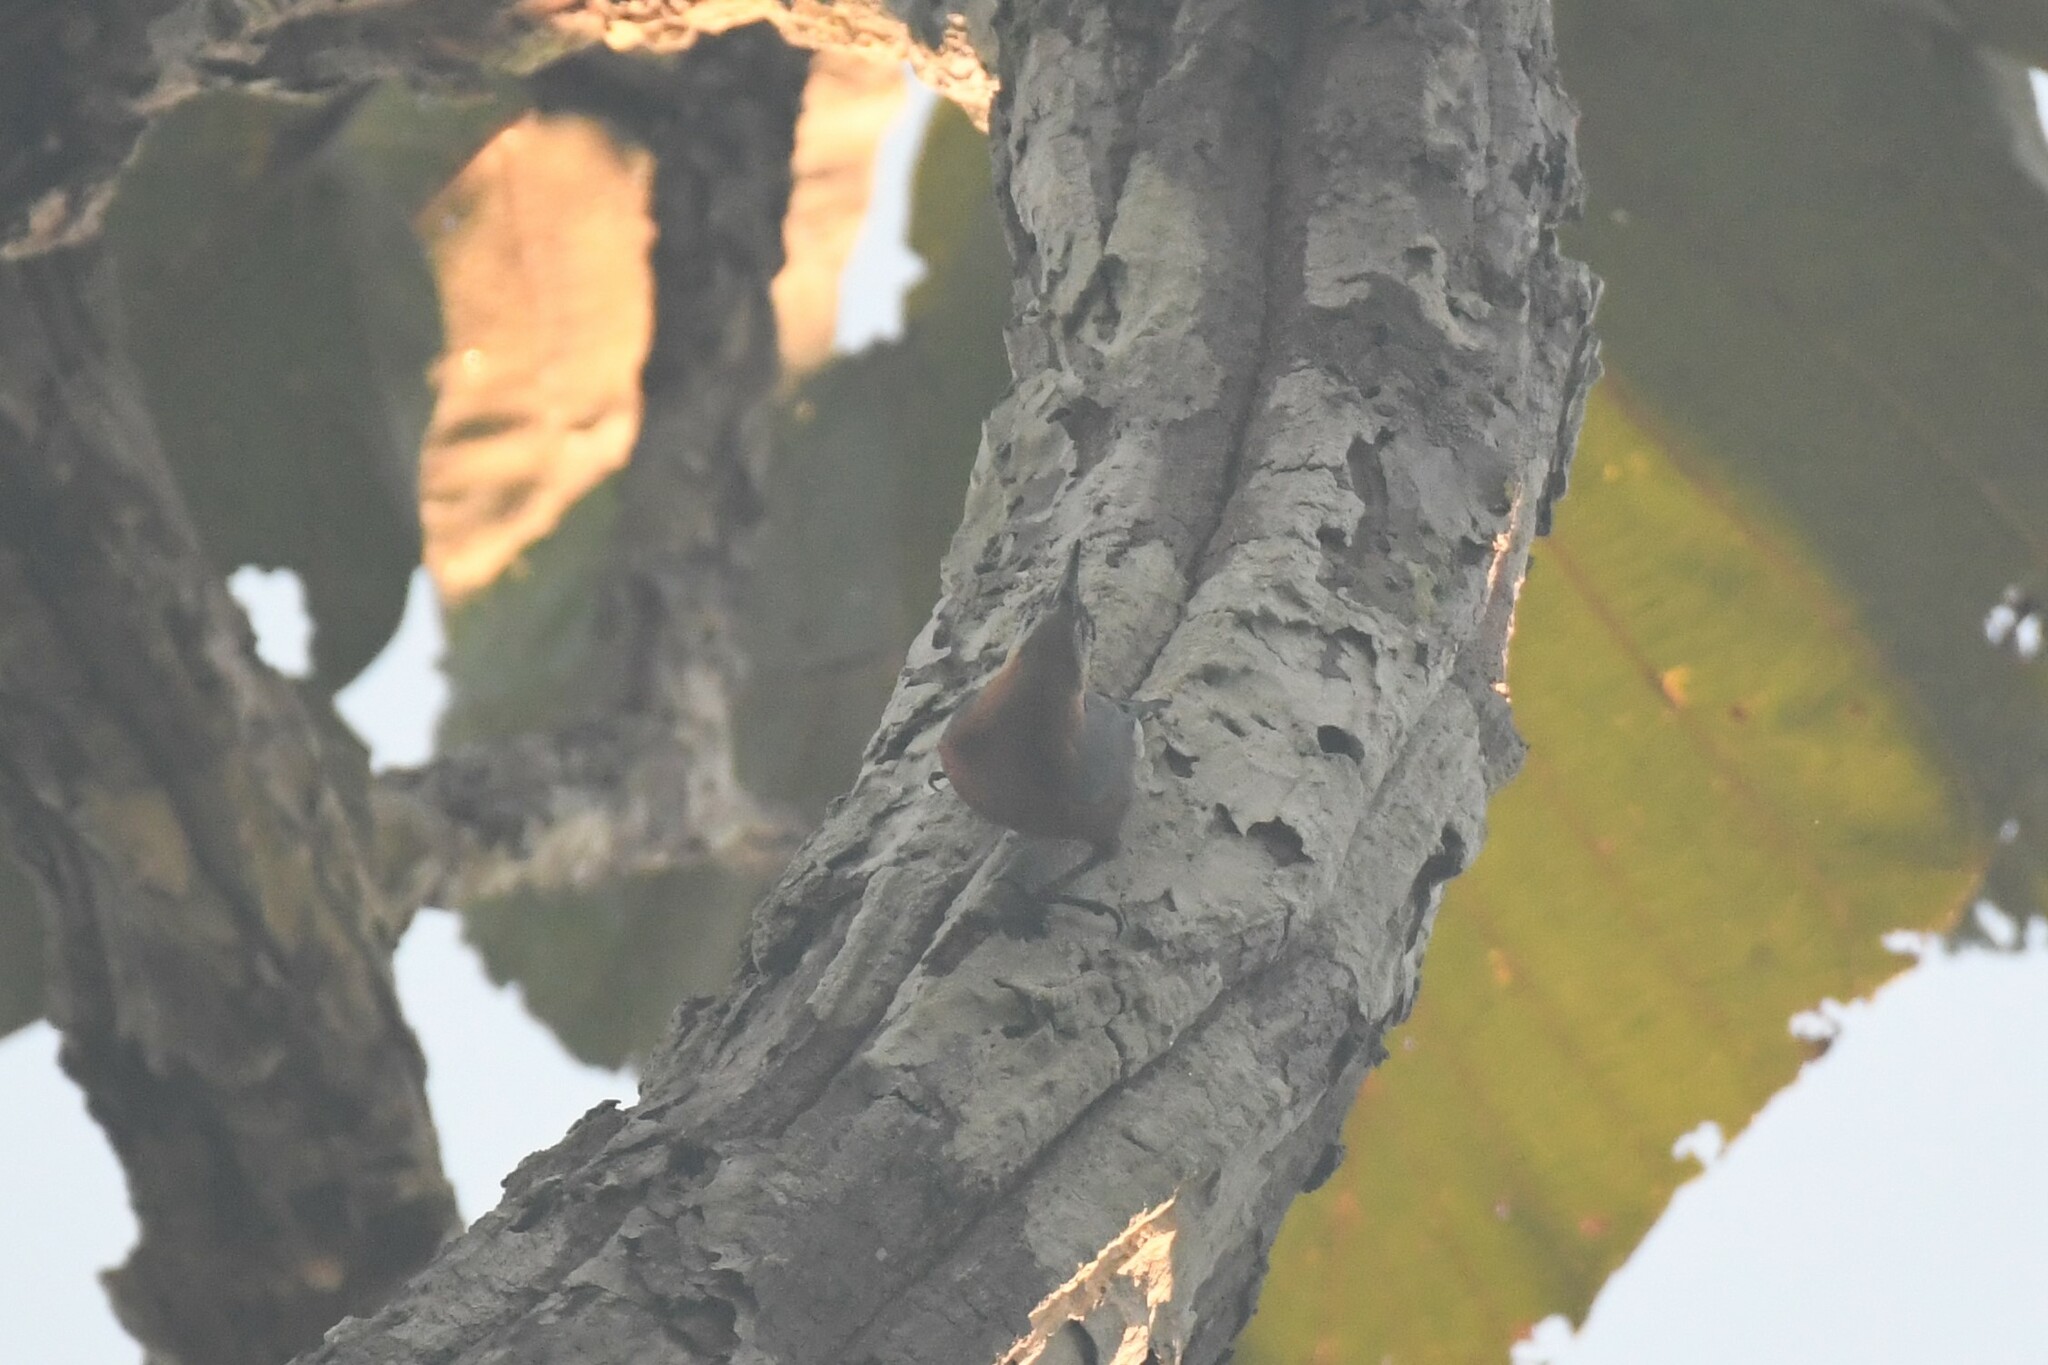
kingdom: Animalia
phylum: Chordata
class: Aves
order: Passeriformes
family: Sittidae
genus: Sitta
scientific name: Sitta neglecta
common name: Burmese nuthatch
